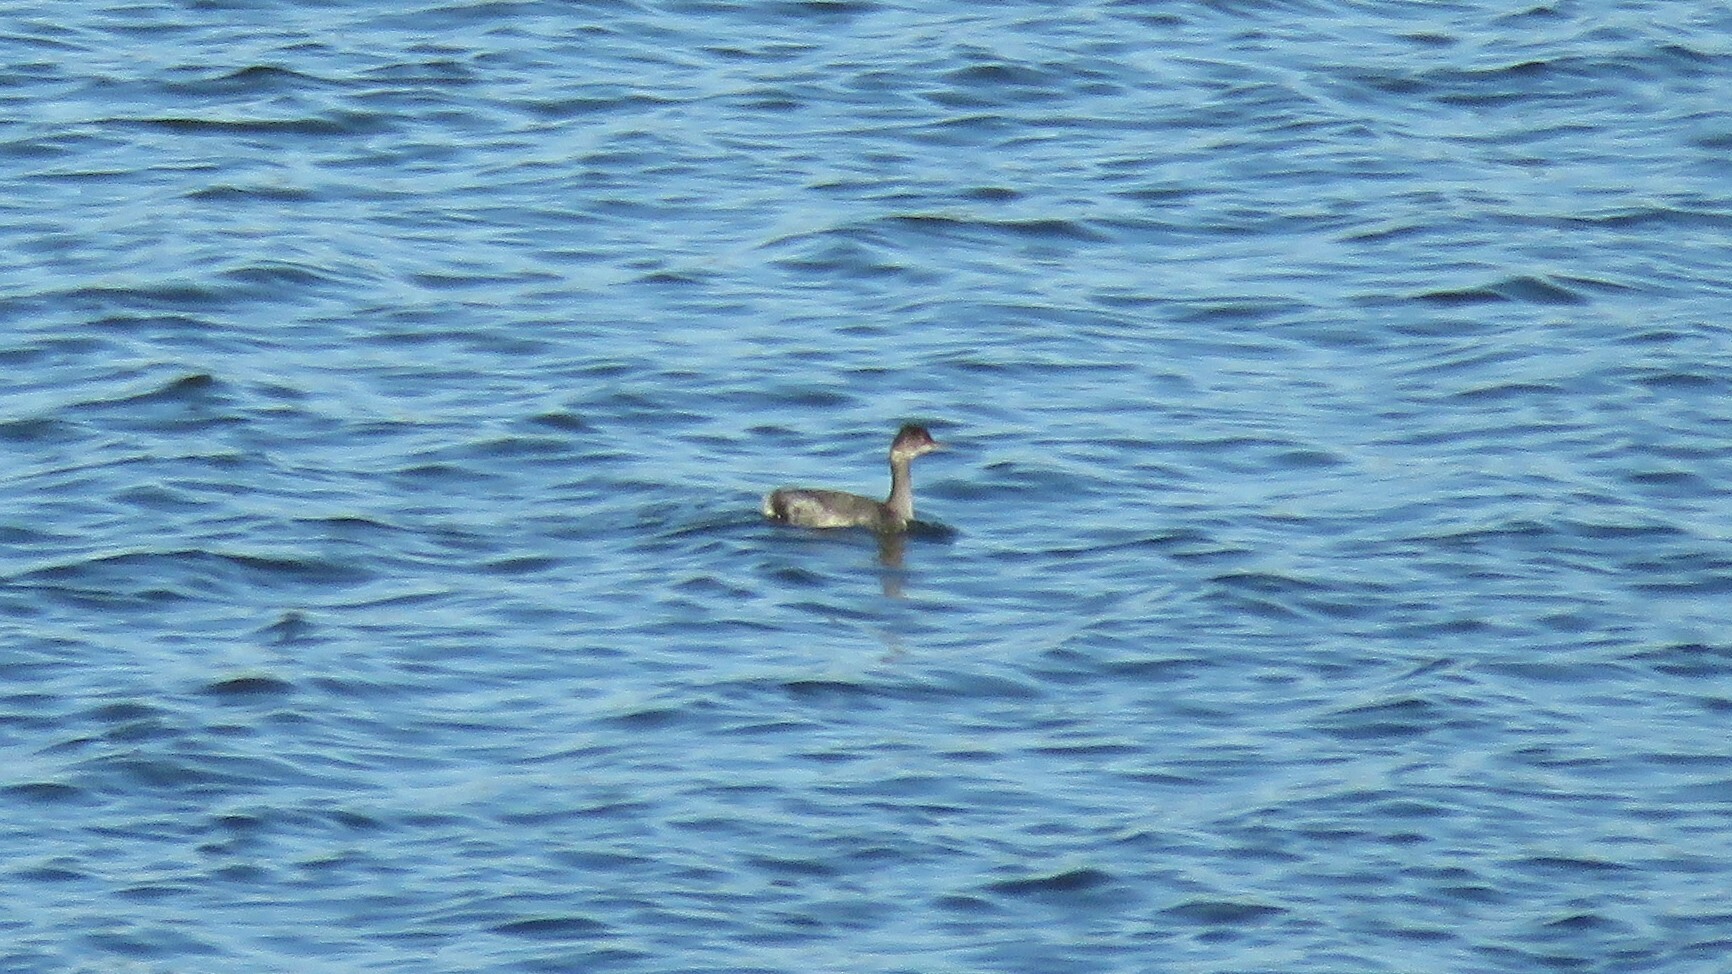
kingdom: Animalia
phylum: Chordata
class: Aves
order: Podicipediformes
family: Podicipedidae
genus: Podiceps
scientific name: Podiceps nigricollis
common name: Black-necked grebe
